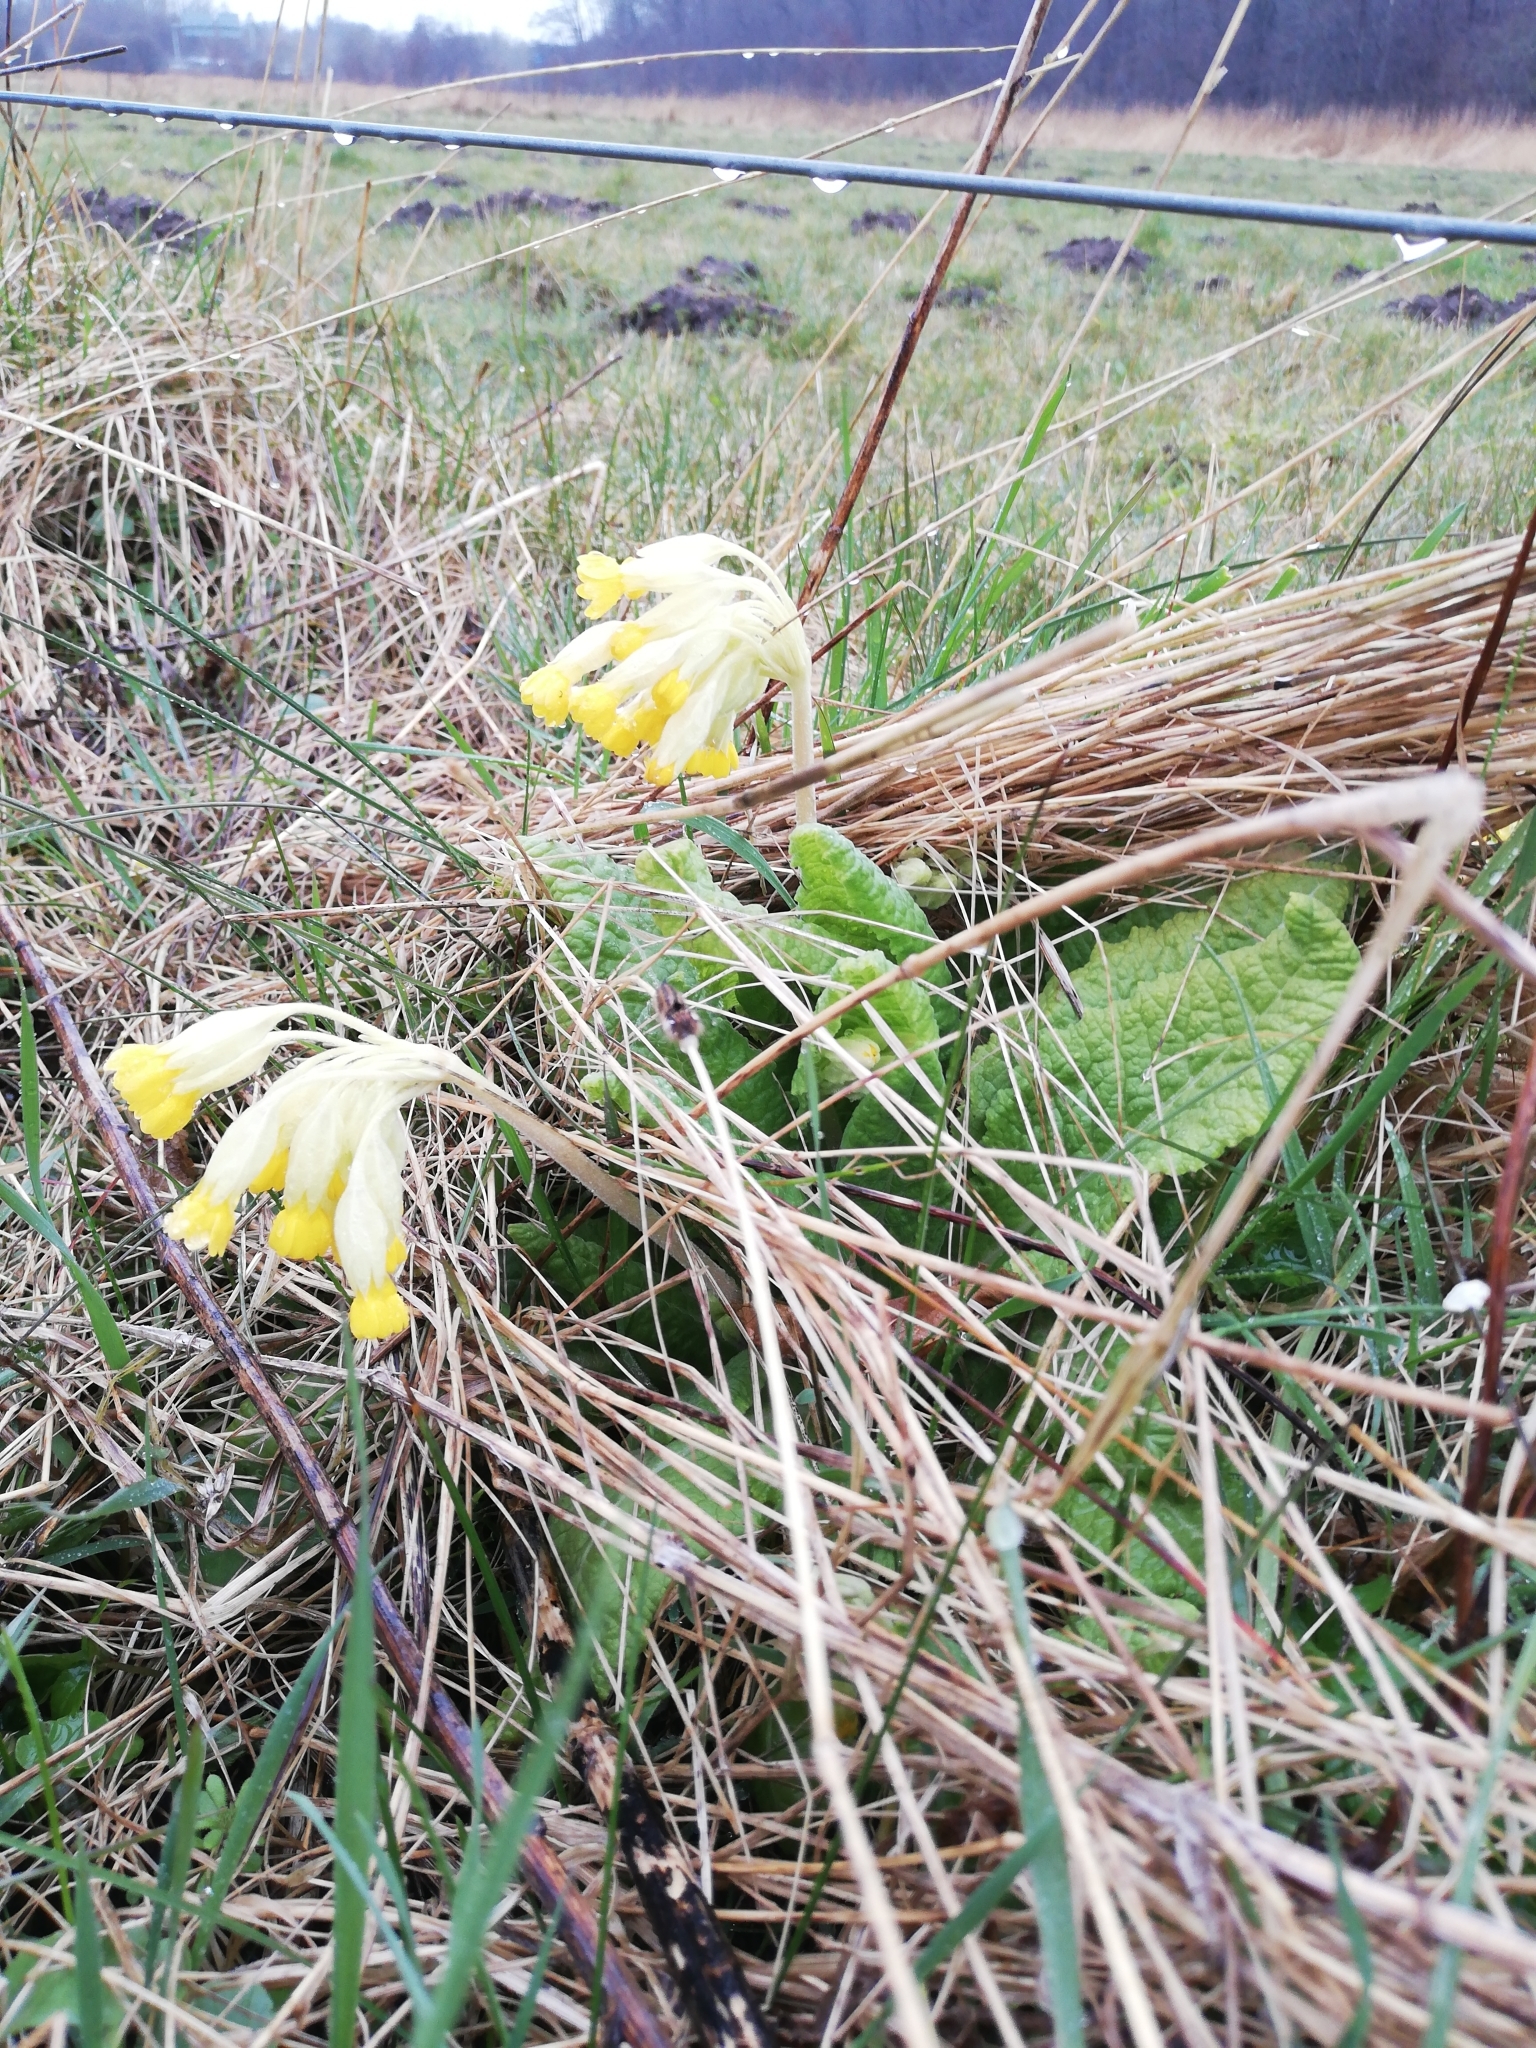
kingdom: Plantae
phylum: Tracheophyta
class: Magnoliopsida
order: Ericales
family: Primulaceae
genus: Primula
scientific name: Primula veris
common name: Cowslip
